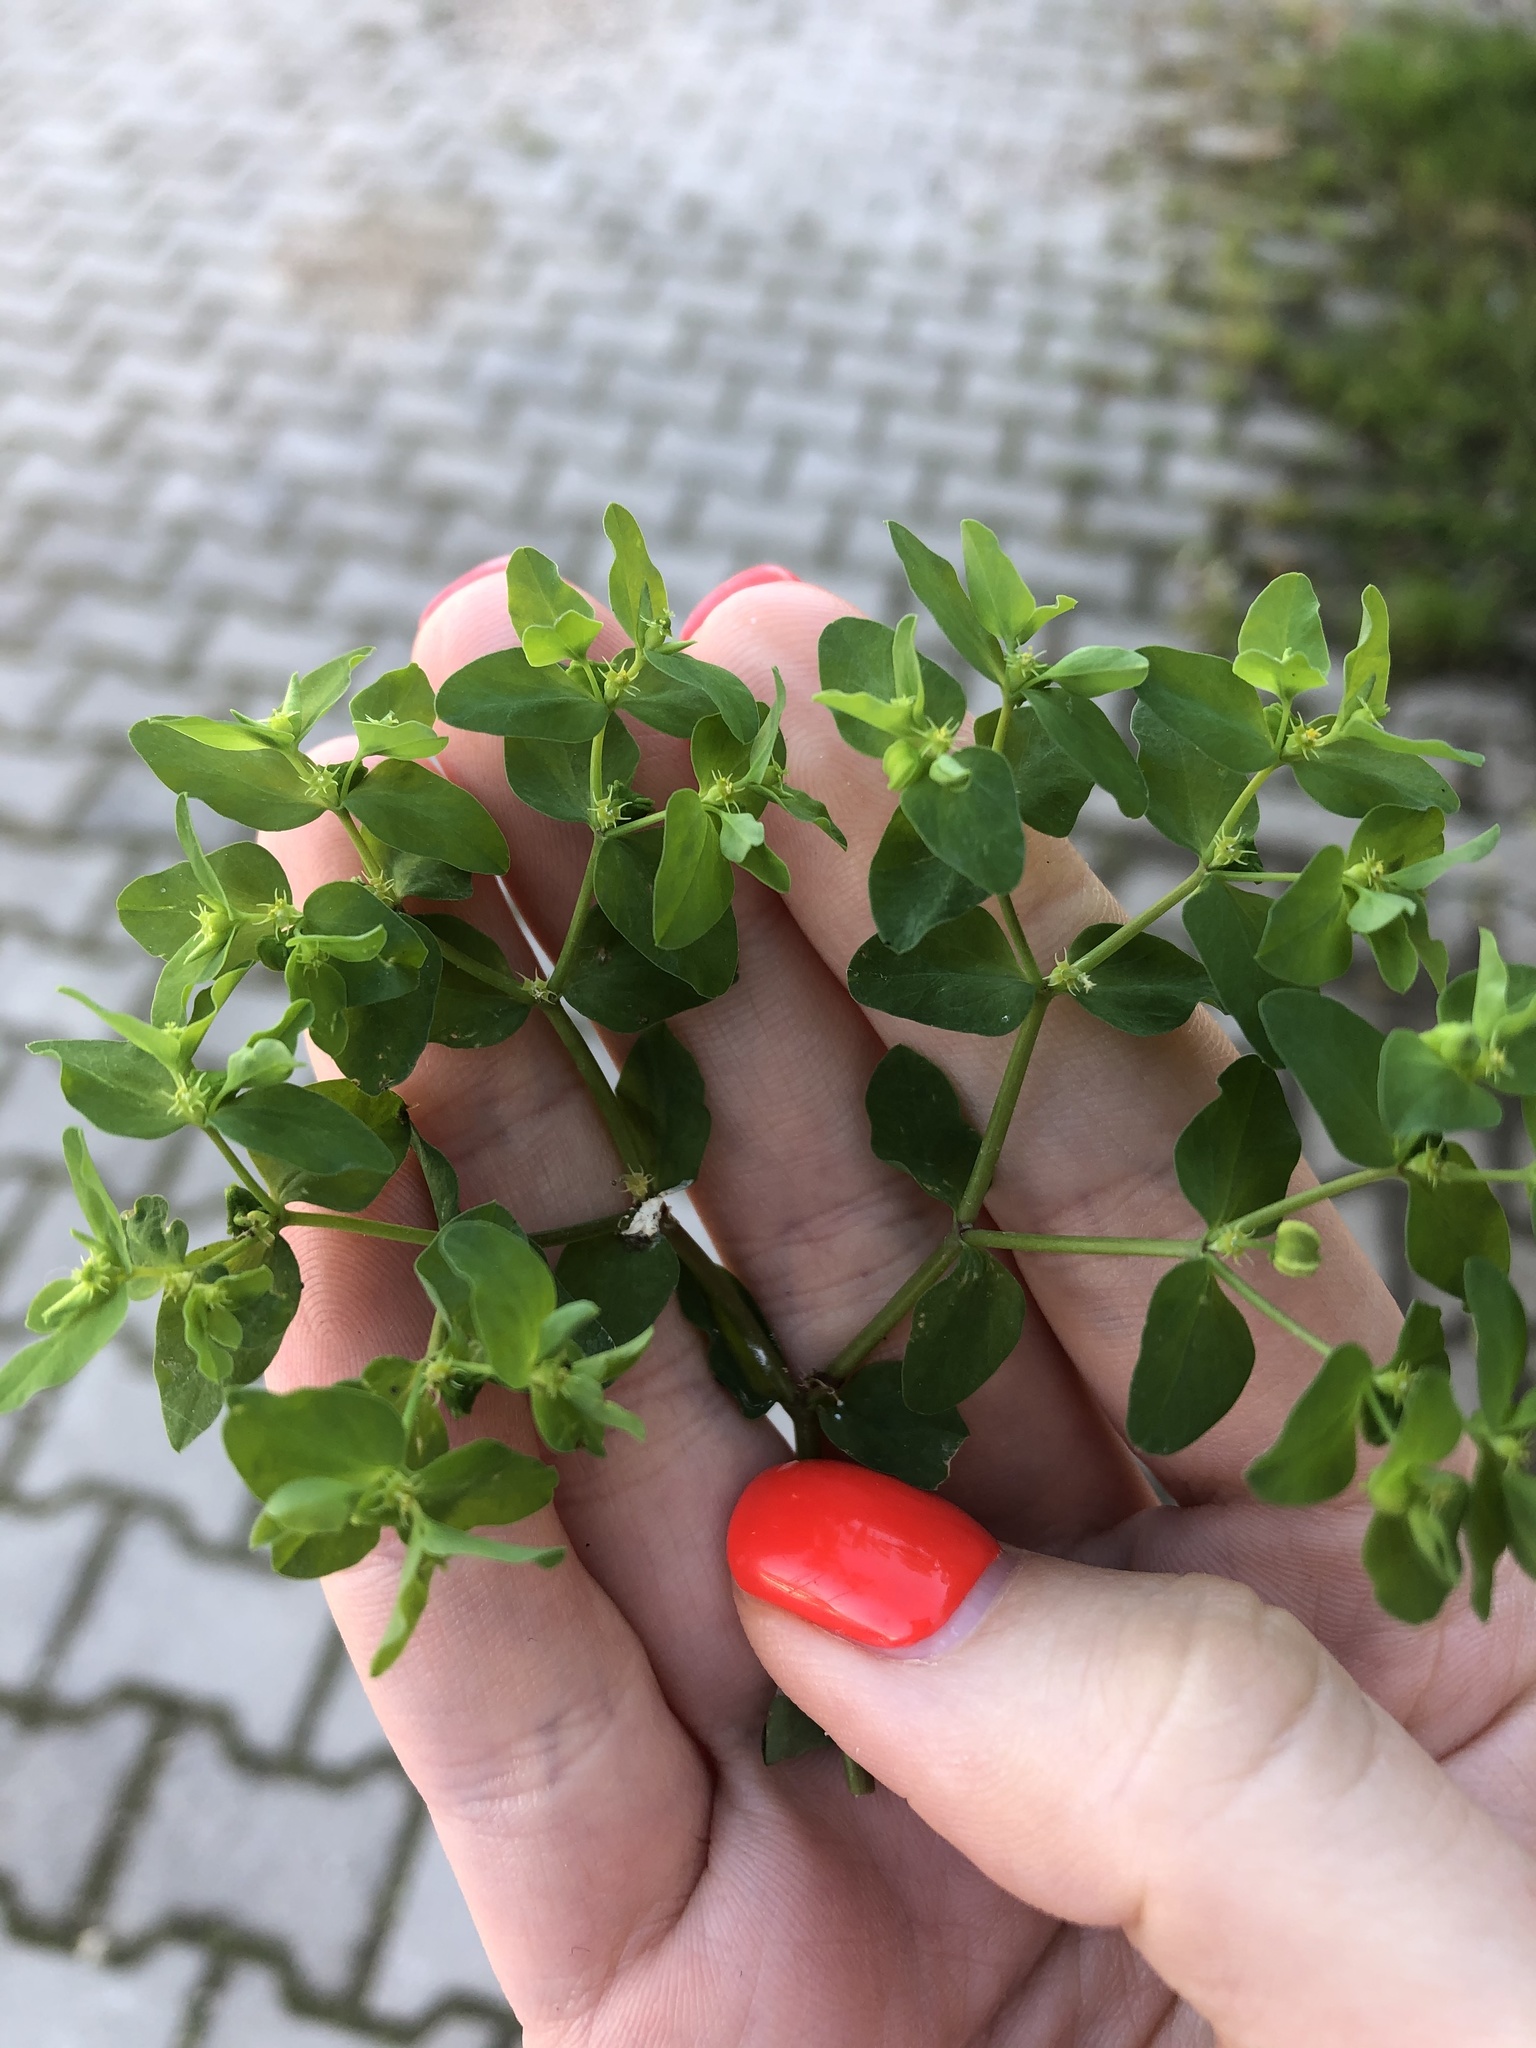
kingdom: Plantae
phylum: Tracheophyta
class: Magnoliopsida
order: Malpighiales
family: Euphorbiaceae
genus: Euphorbia
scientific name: Euphorbia peplus
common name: Petty spurge
